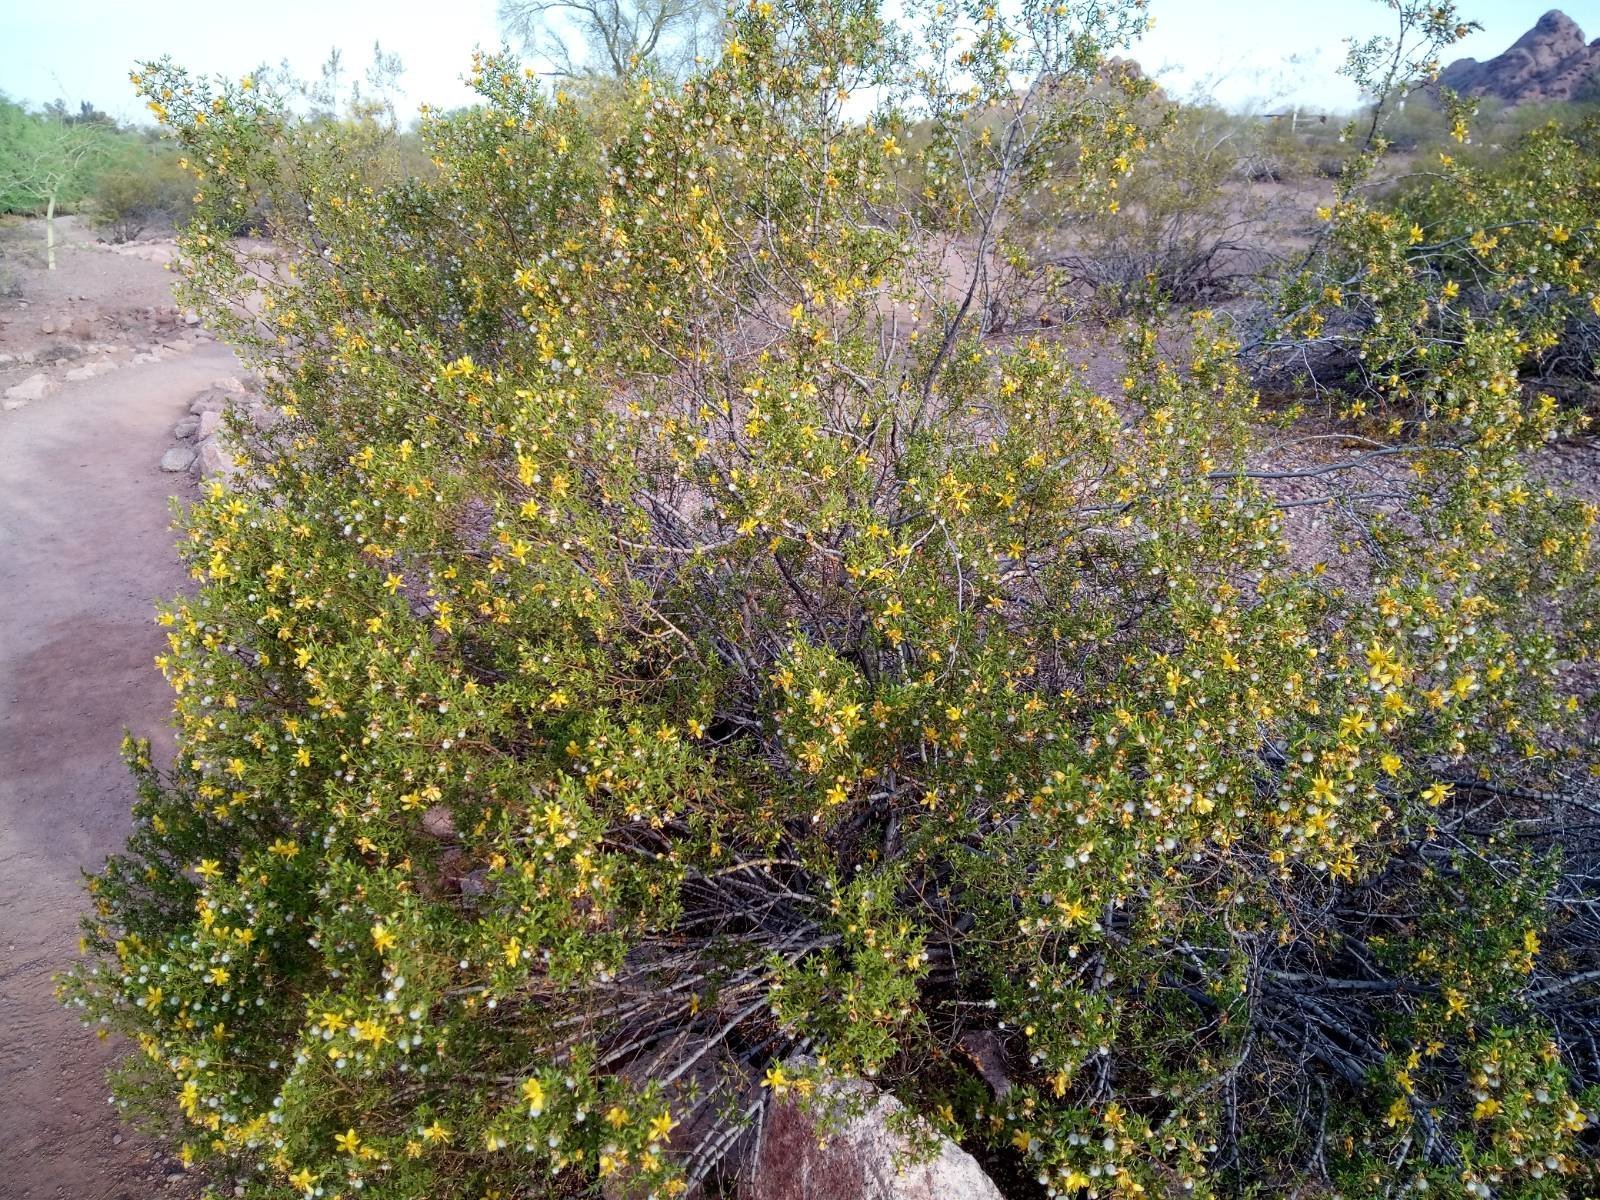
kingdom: Plantae
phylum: Tracheophyta
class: Magnoliopsida
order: Zygophyllales
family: Zygophyllaceae
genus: Larrea
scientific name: Larrea tridentata
